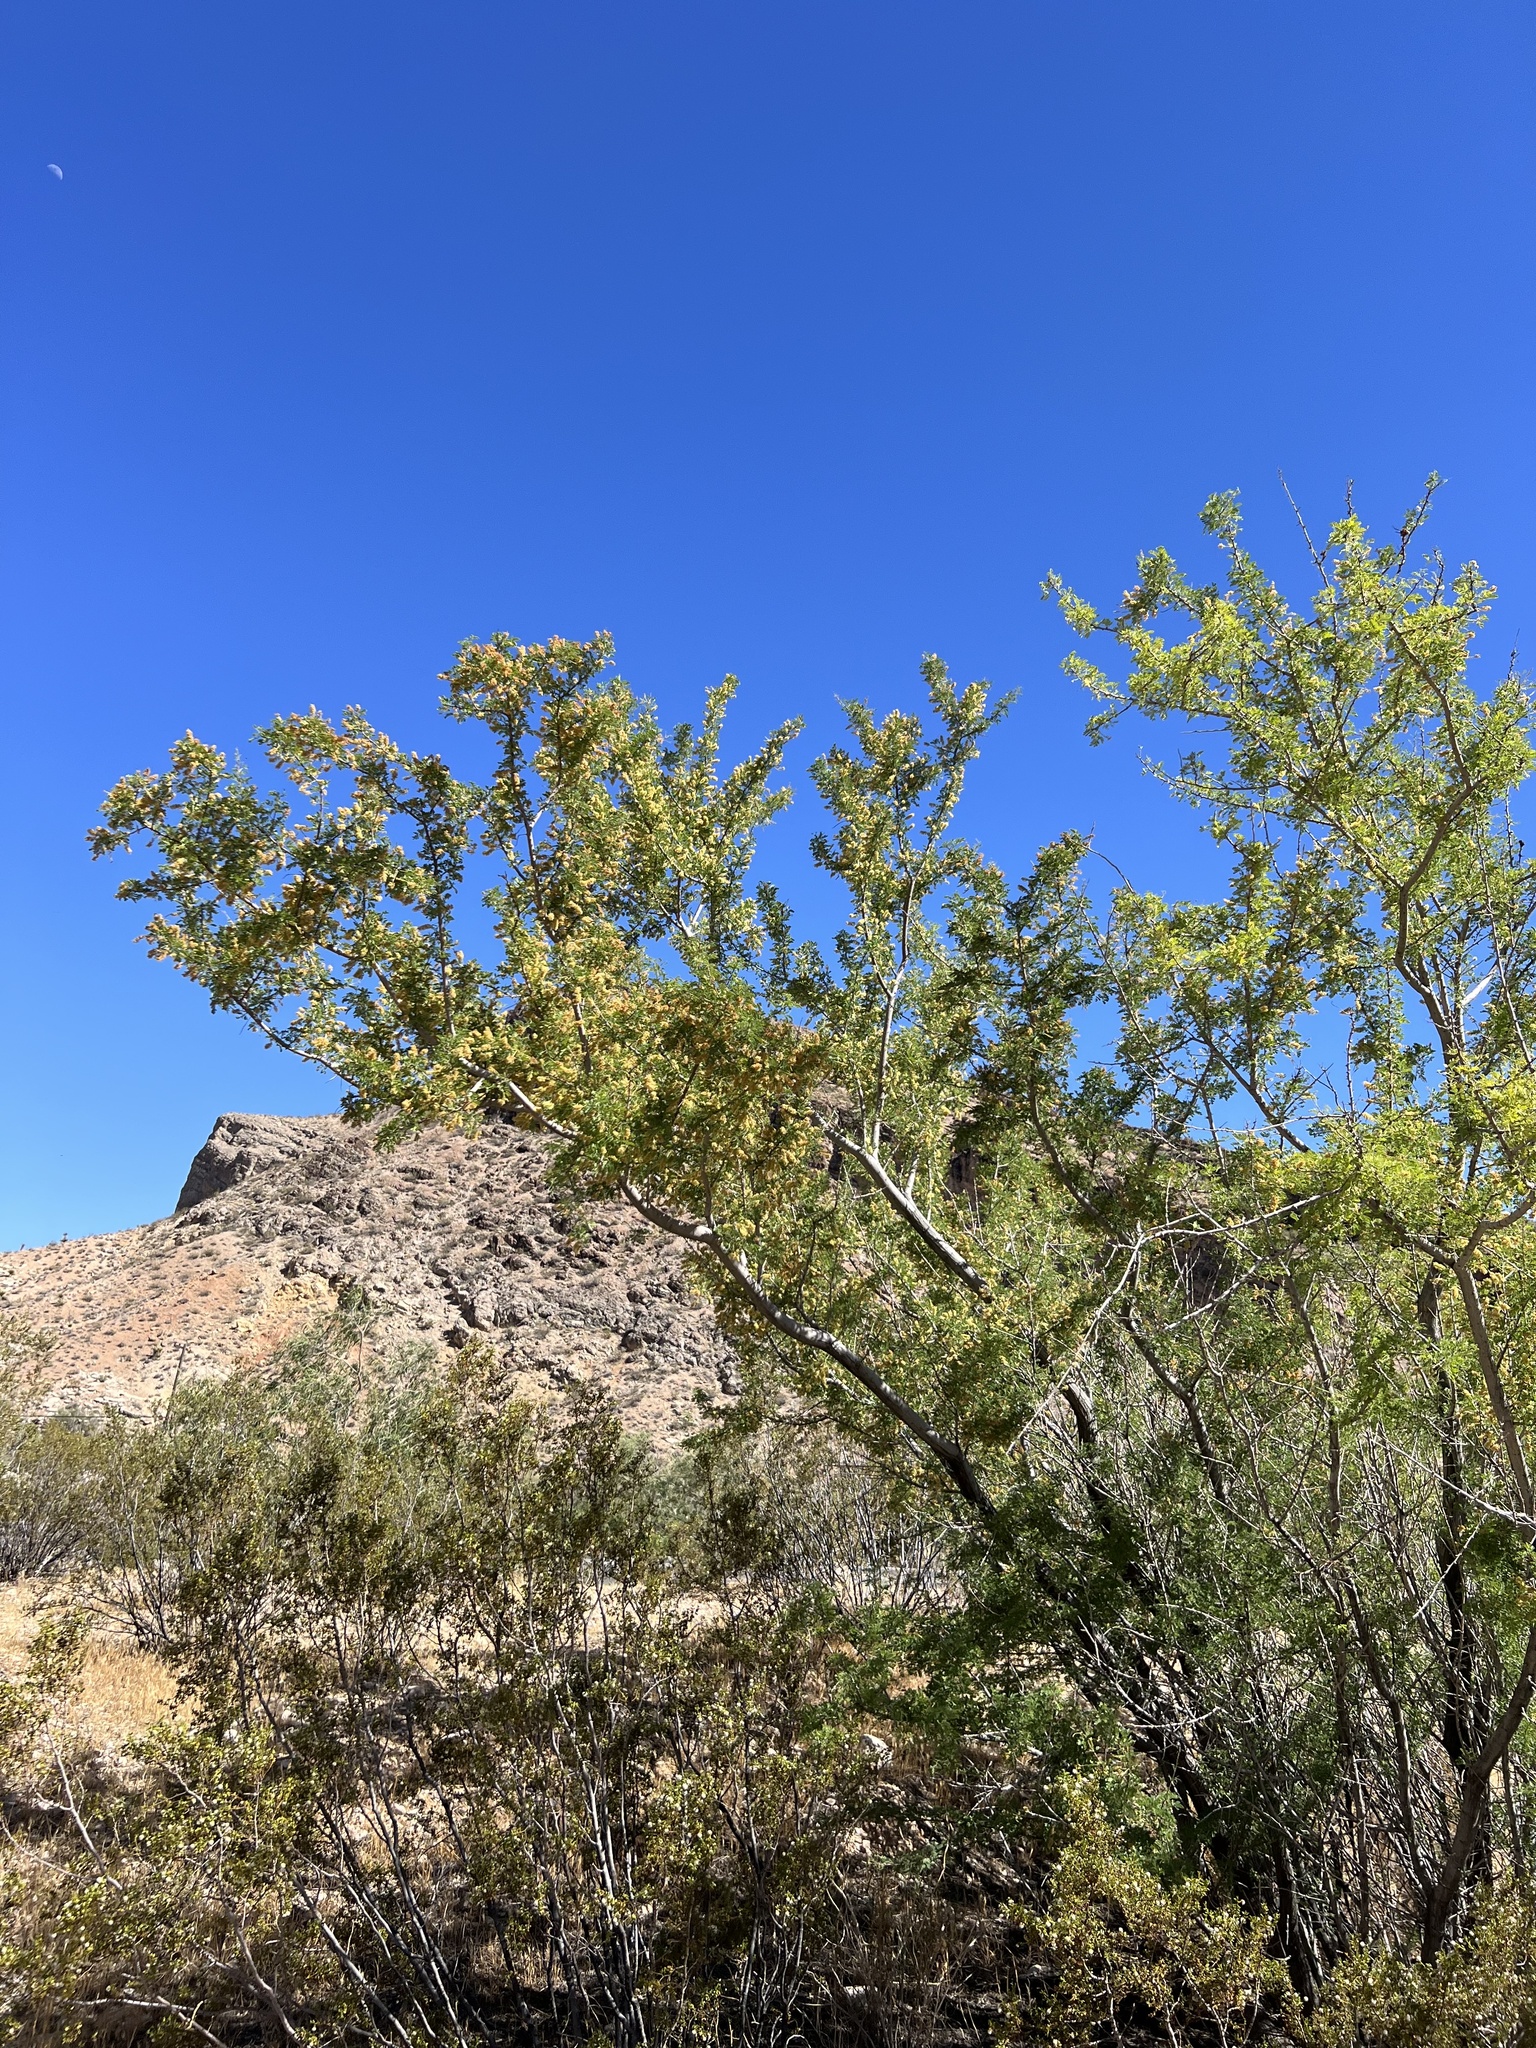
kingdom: Plantae
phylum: Tracheophyta
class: Magnoliopsida
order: Fabales
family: Fabaceae
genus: Senegalia
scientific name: Senegalia greggii
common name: Texas-mimosa
